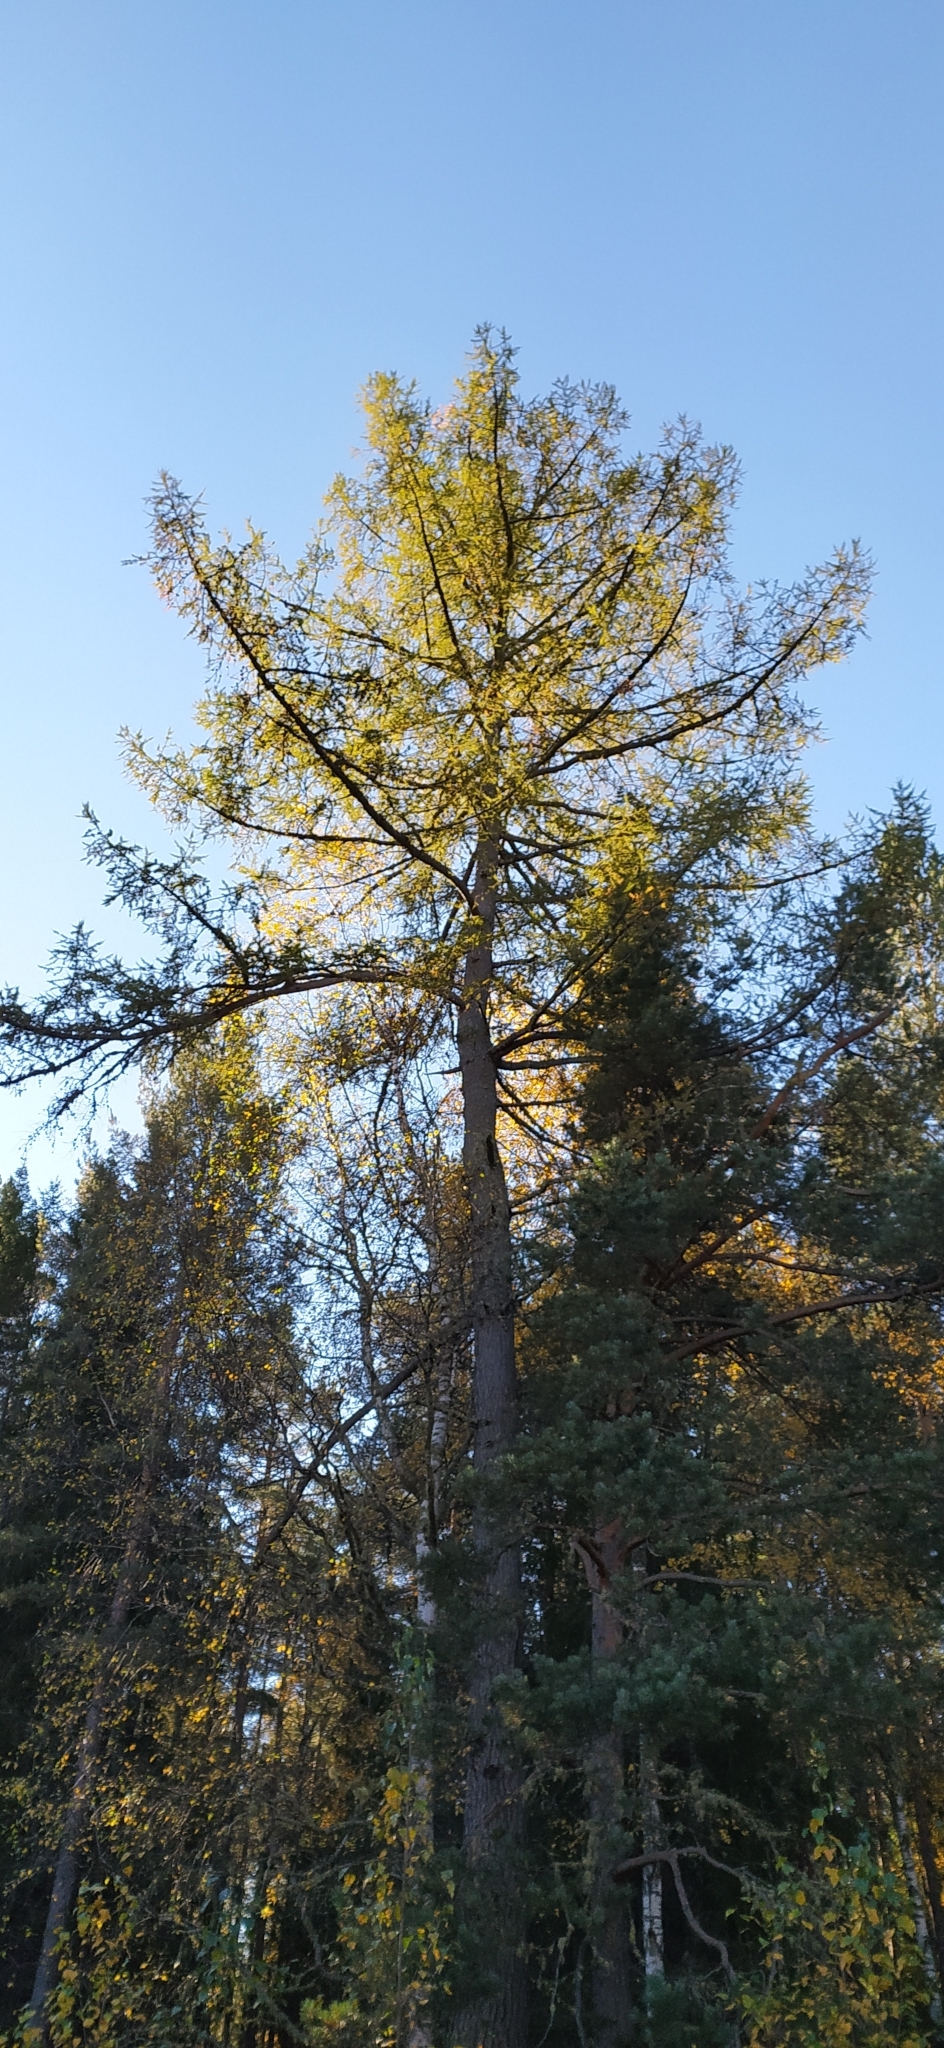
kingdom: Plantae
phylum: Tracheophyta
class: Pinopsida
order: Pinales
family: Pinaceae
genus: Larix
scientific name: Larix sibirica
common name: Siberian larch
